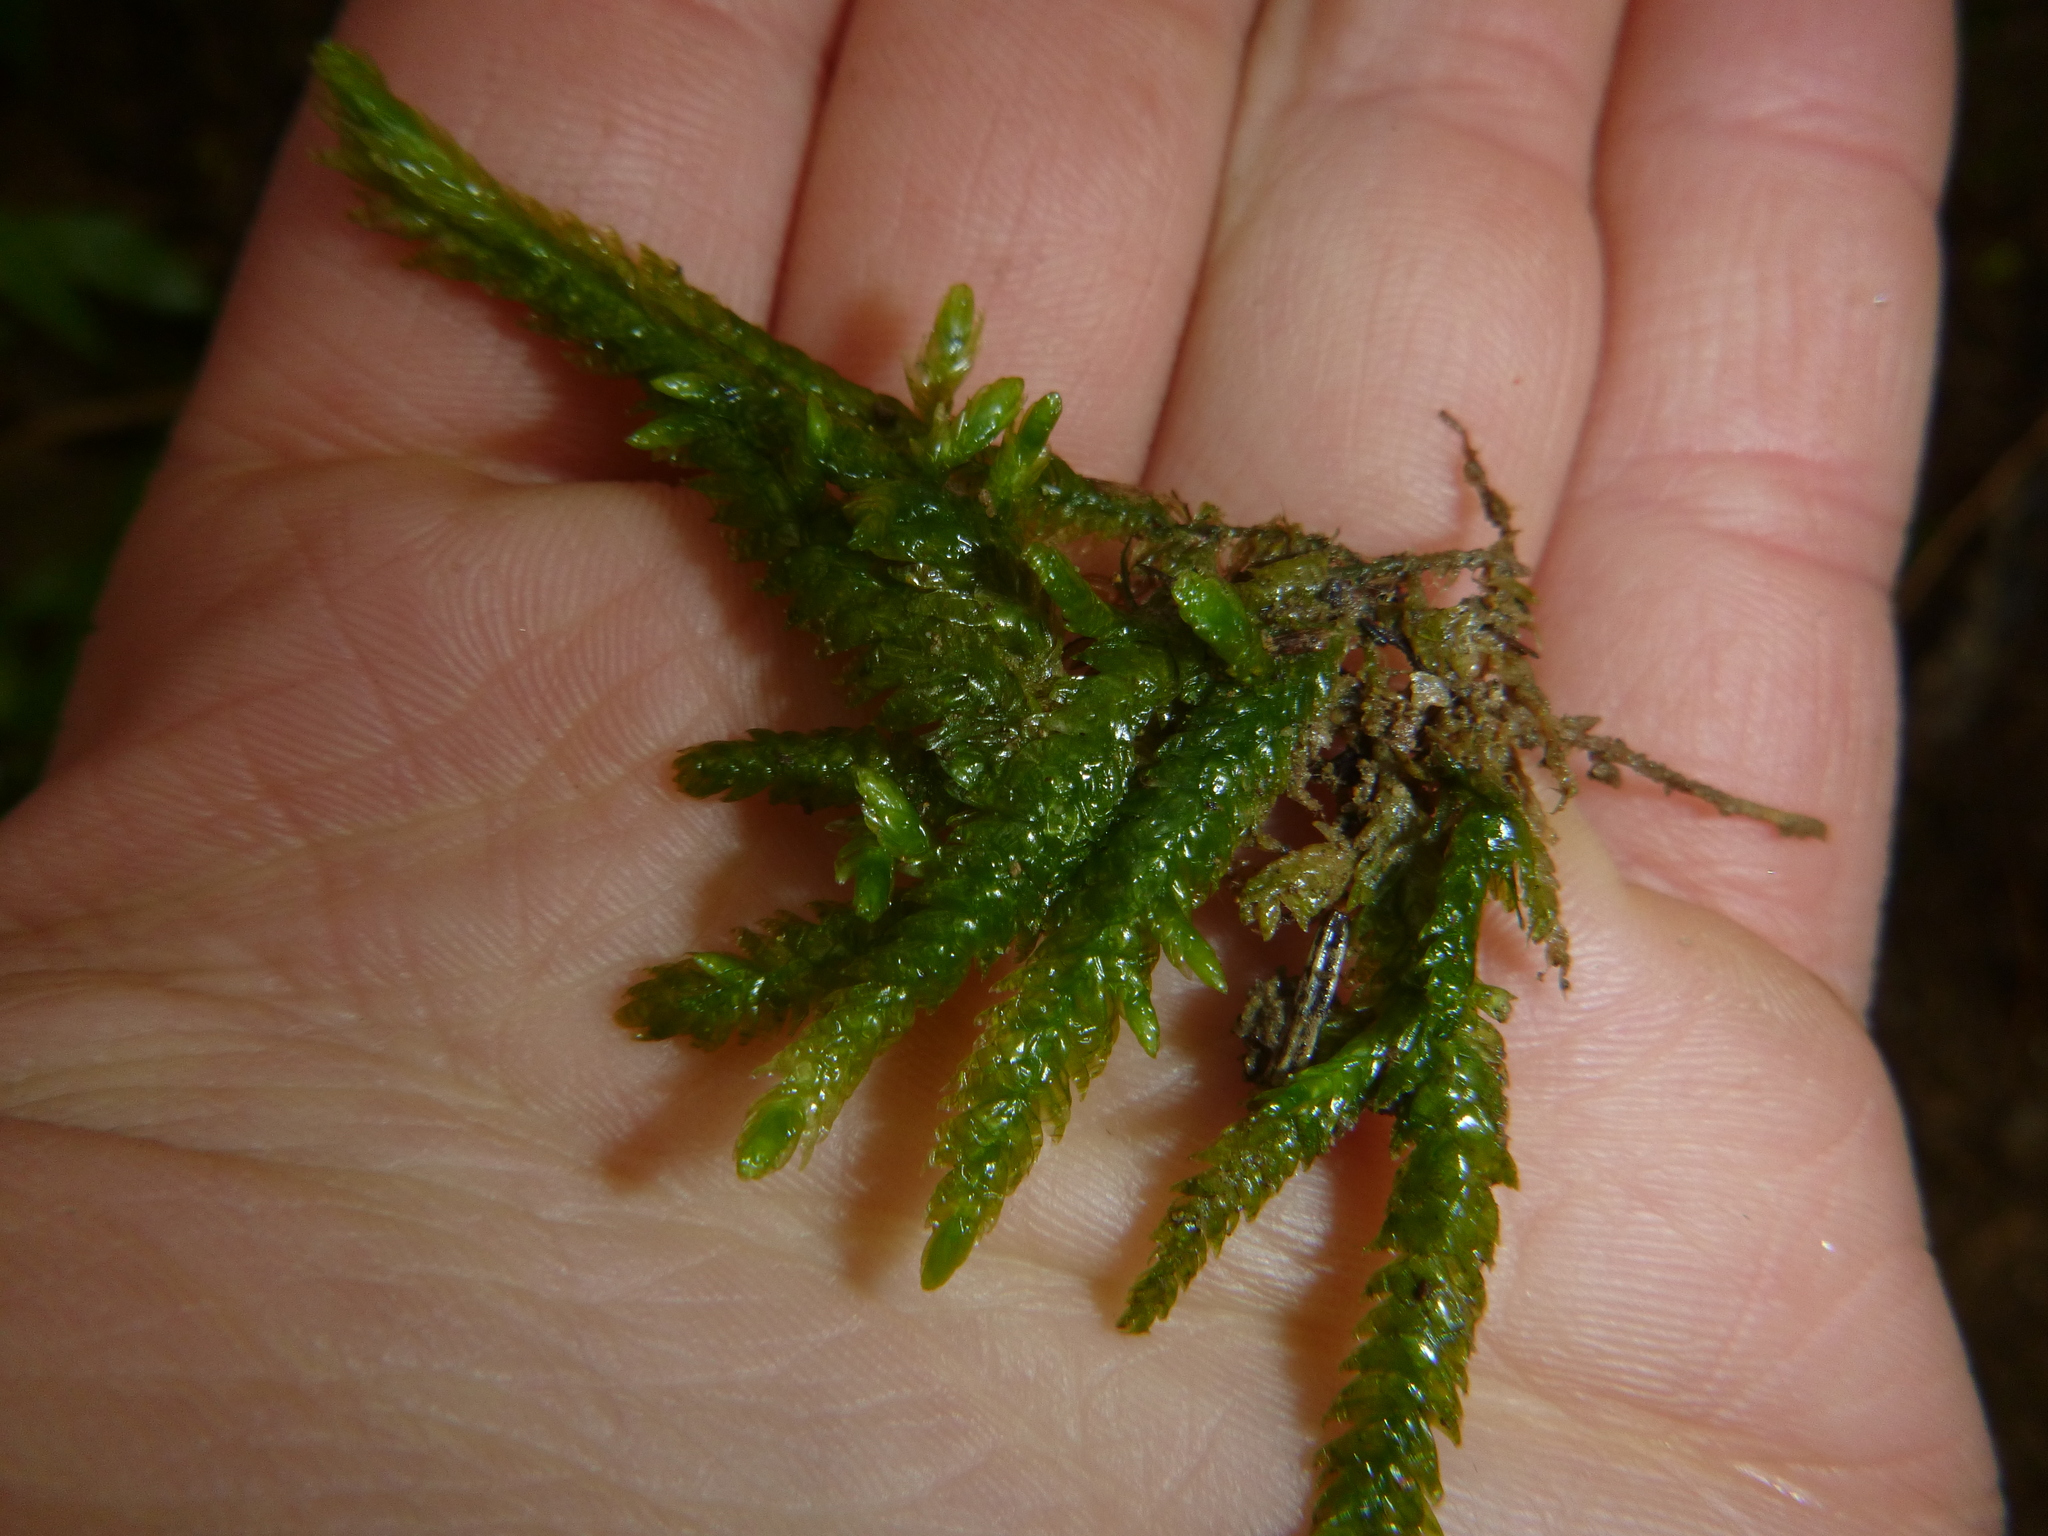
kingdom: Plantae
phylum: Bryophyta
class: Bryopsida
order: Hypnales
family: Plagiotheciaceae
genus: Plagiothecium
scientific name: Plagiothecium undulatum
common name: Waved silk-moss
